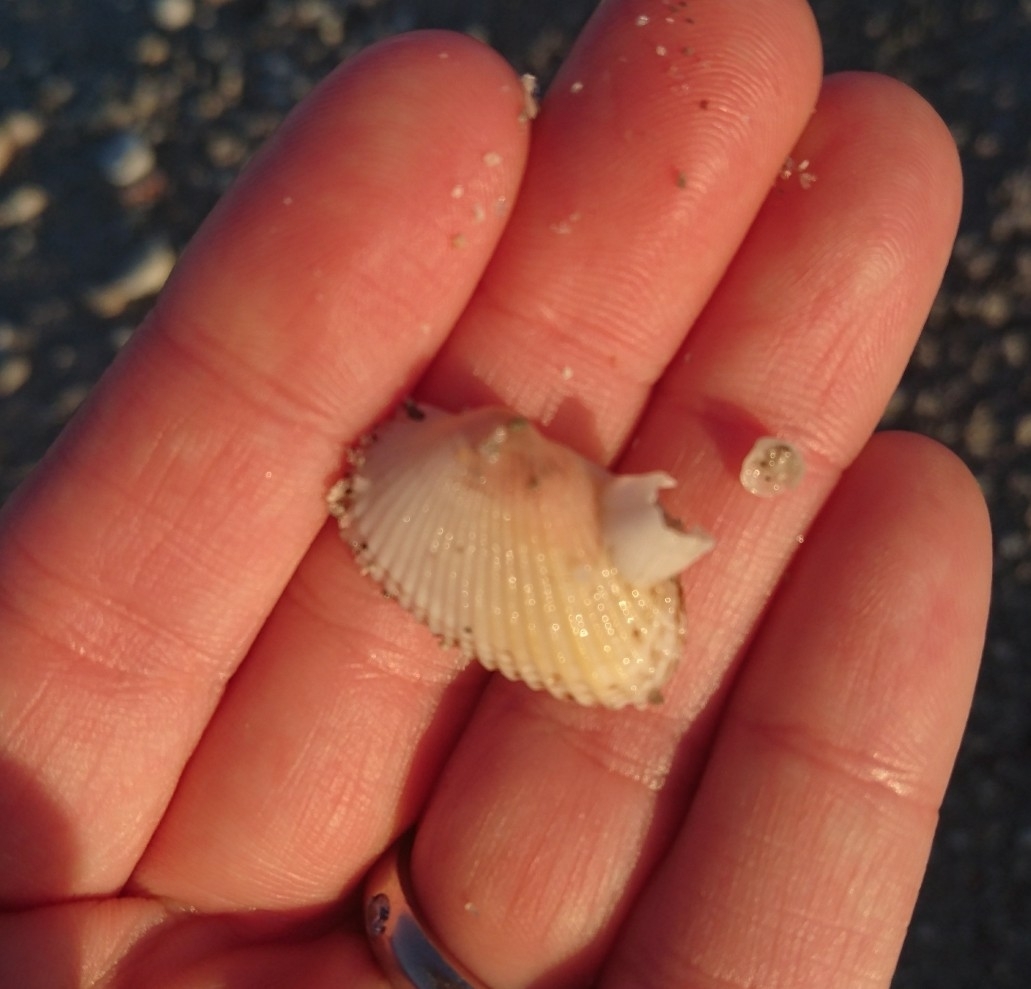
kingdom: Animalia
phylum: Mollusca
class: Bivalvia
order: Arcida
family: Arcidae
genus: Anadara
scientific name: Anadara transversa
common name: Transverse ark
